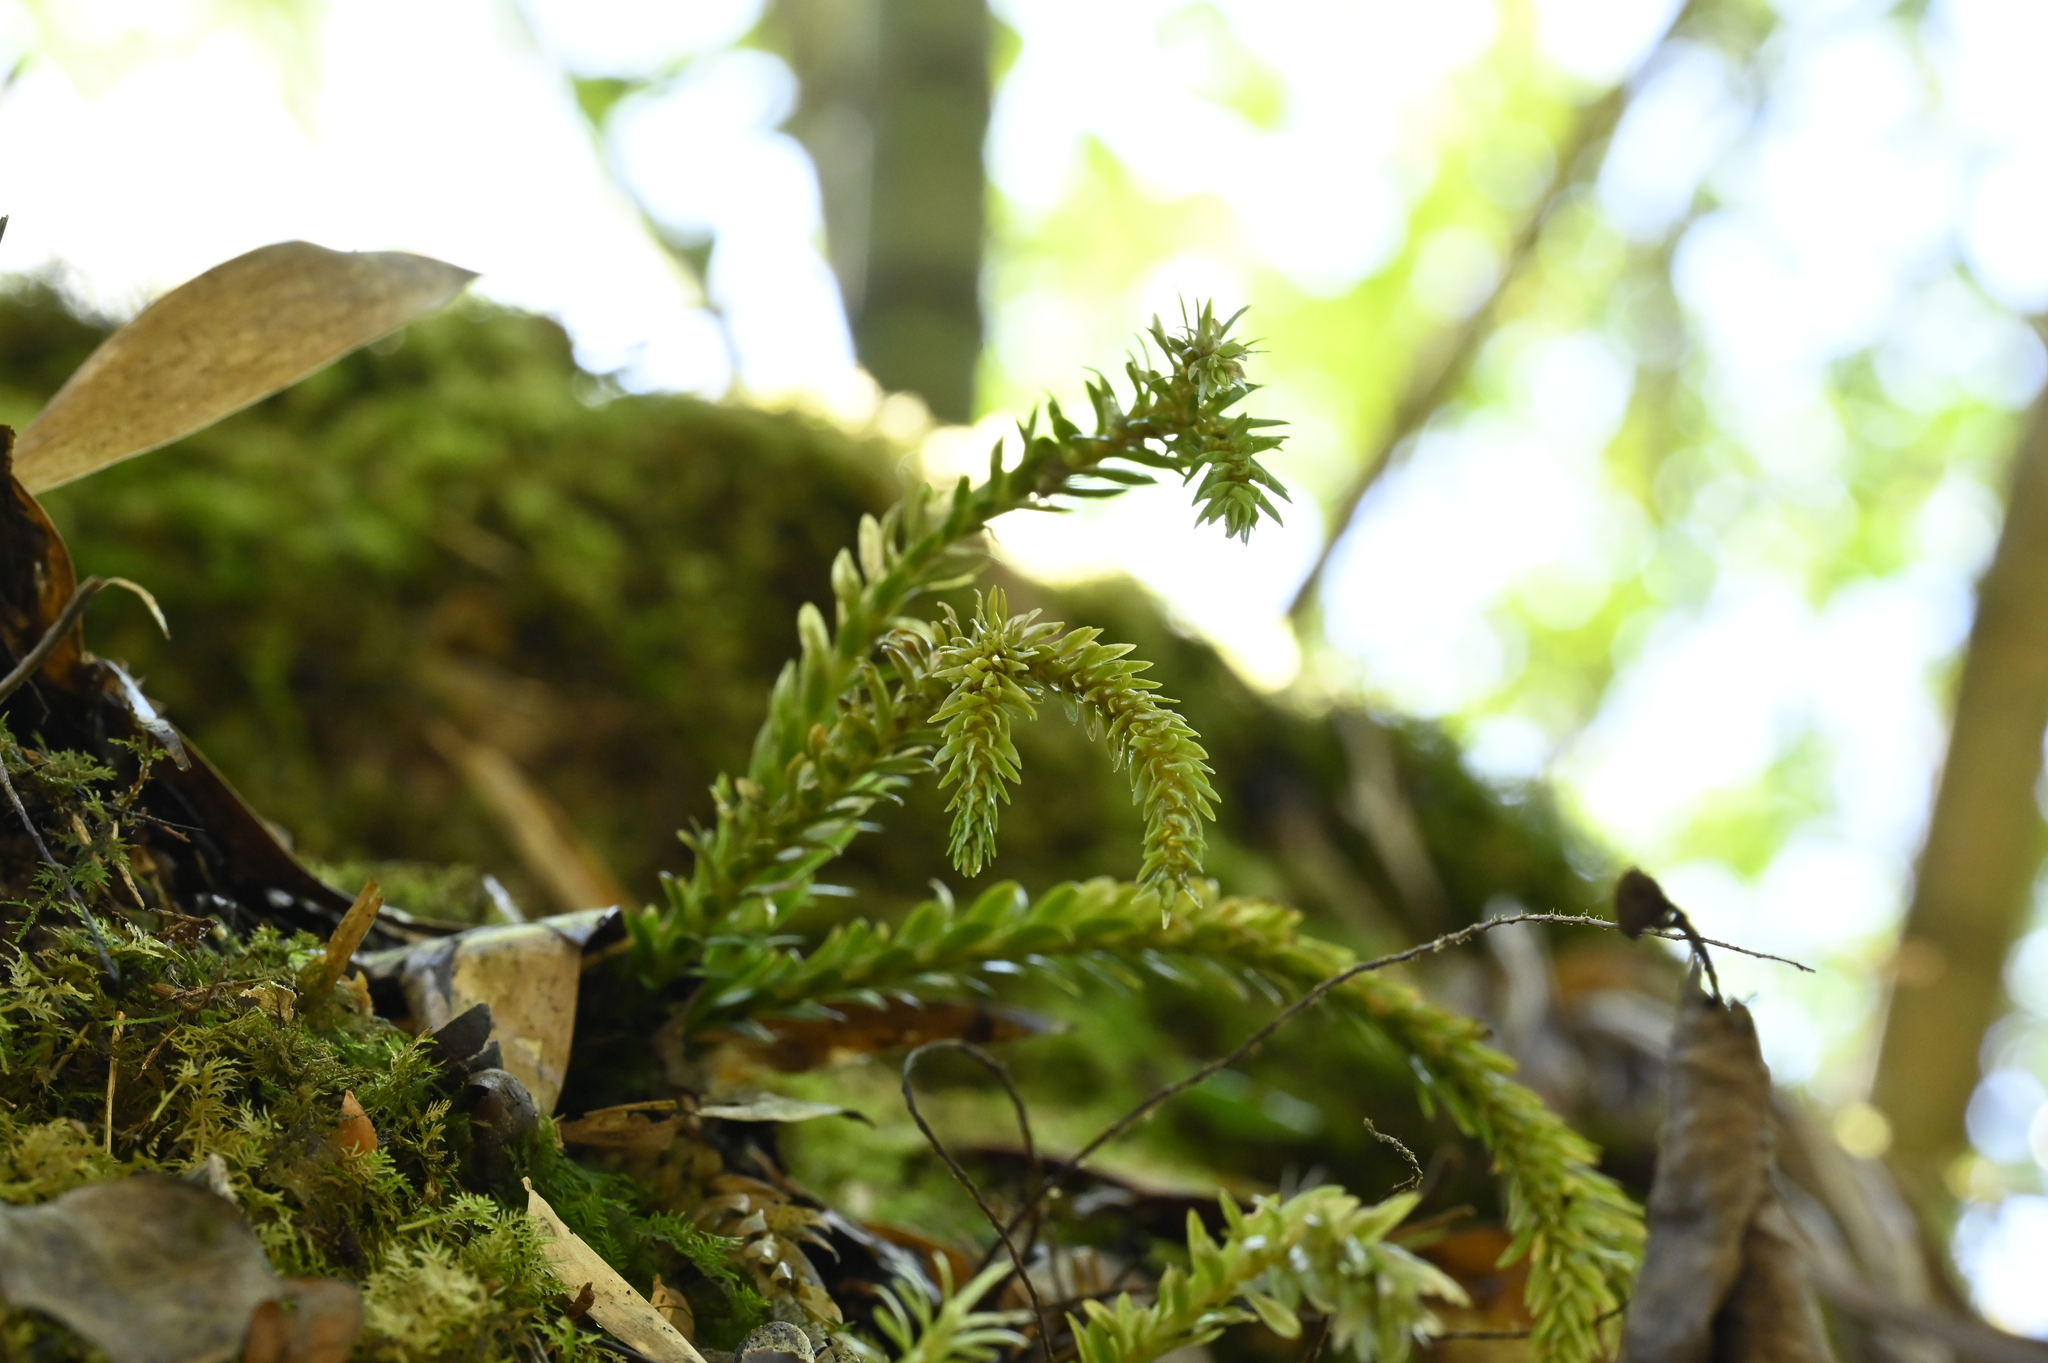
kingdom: Plantae
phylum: Tracheophyta
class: Lycopodiopsida
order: Lycopodiales
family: Lycopodiaceae
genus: Phlegmariurus
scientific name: Phlegmariurus fordii
